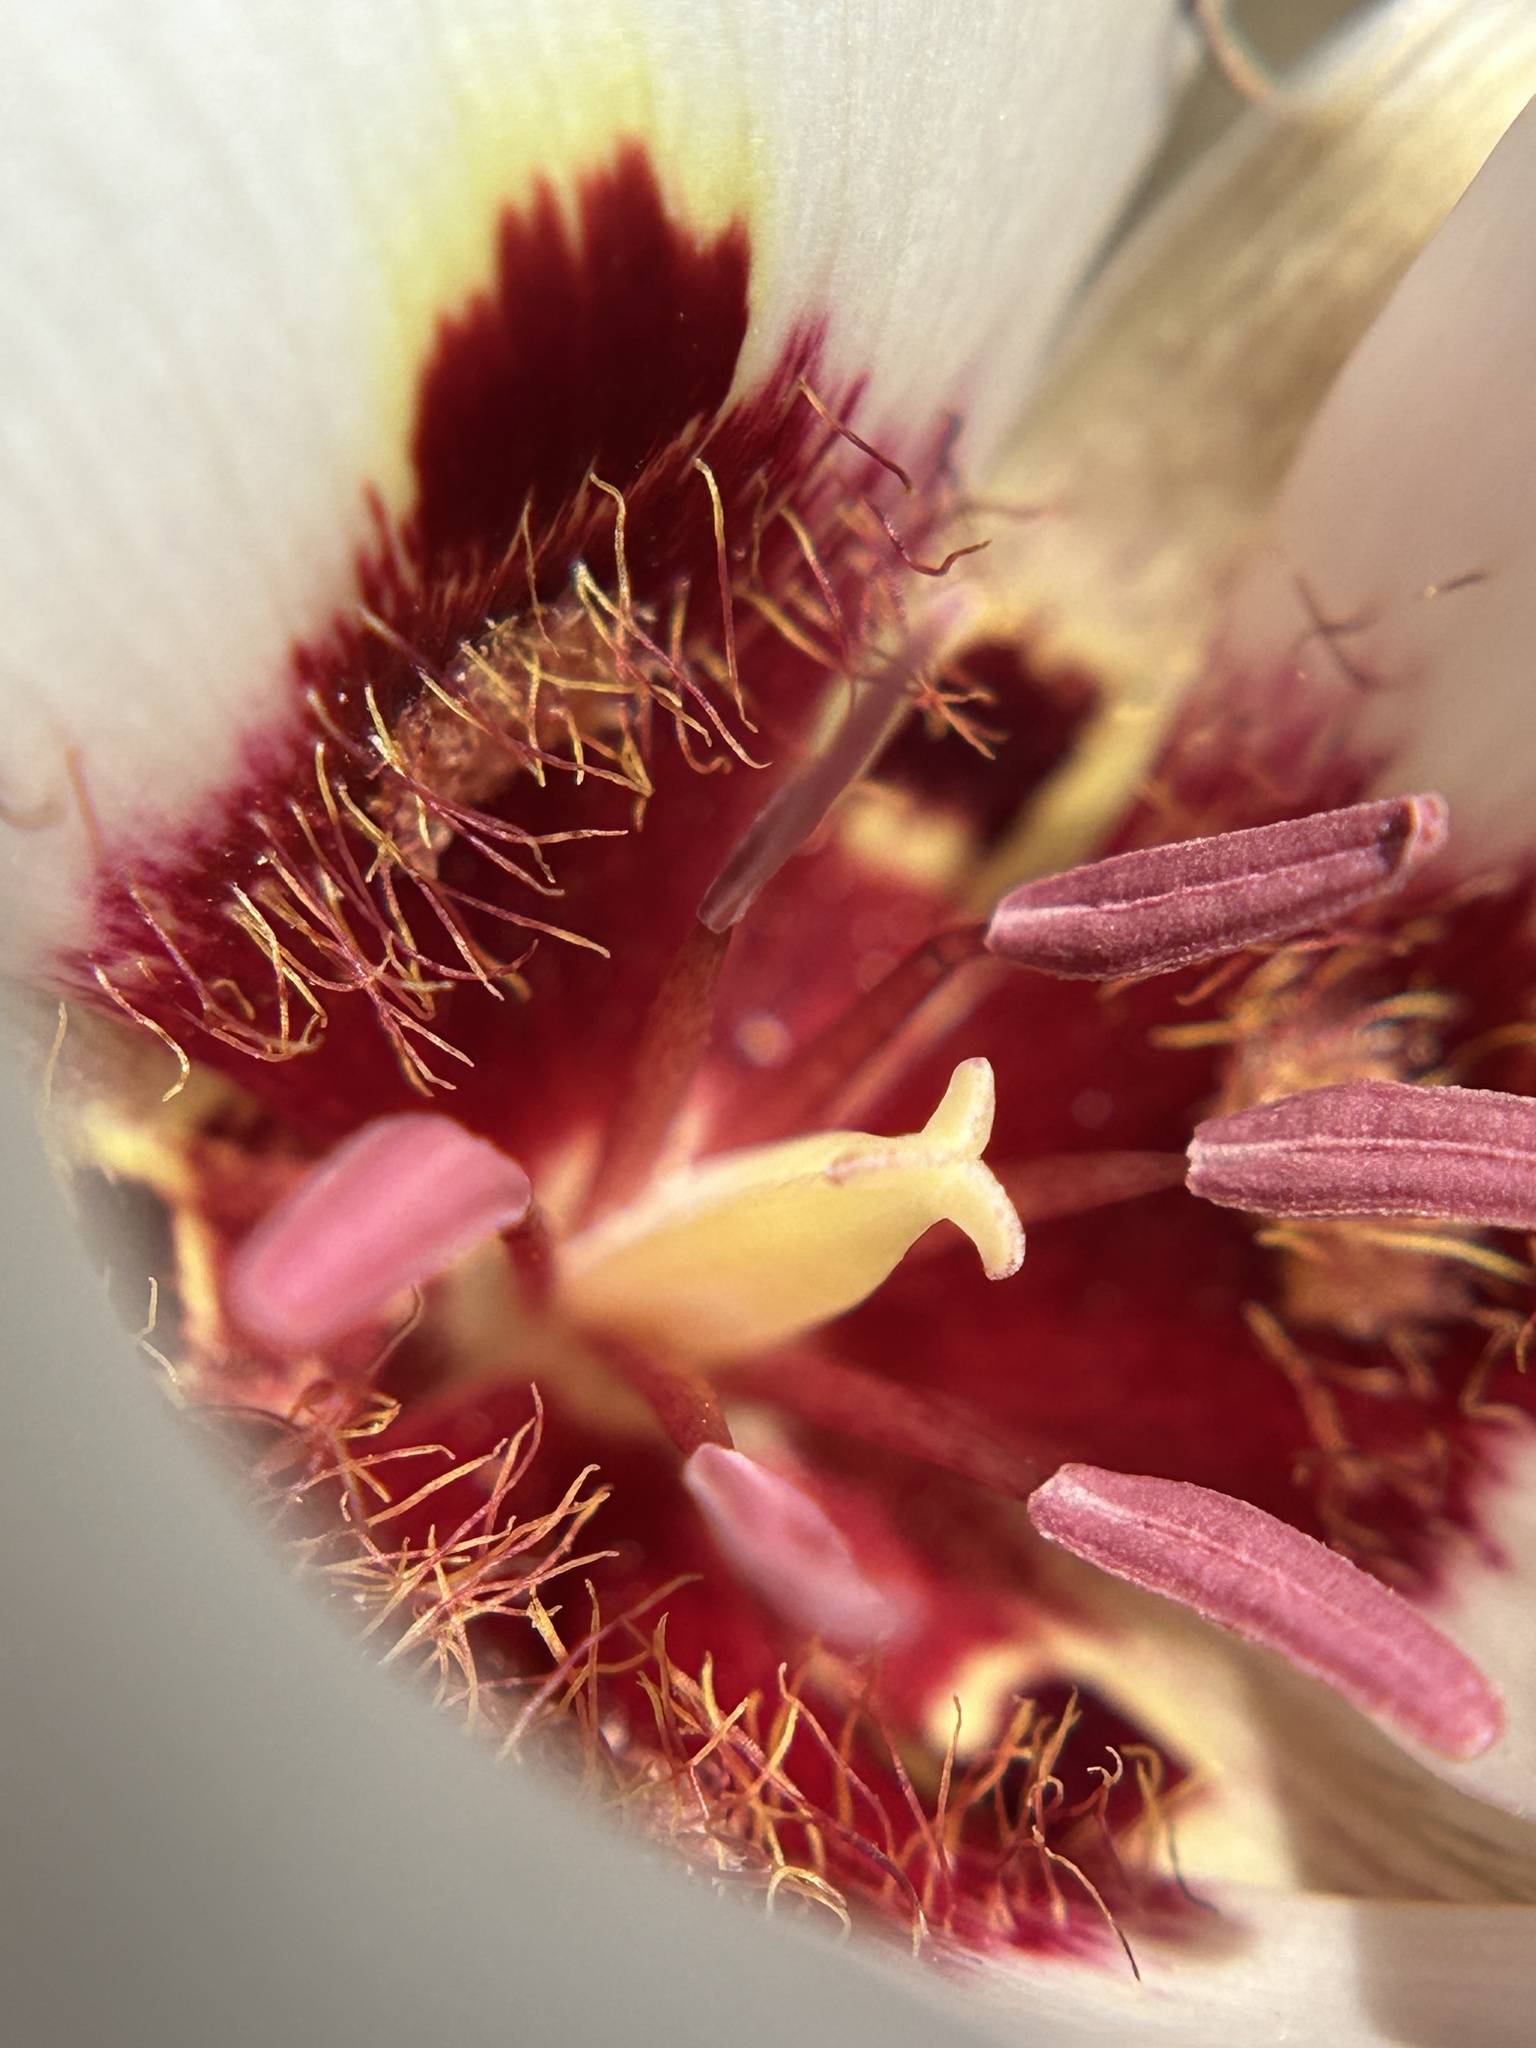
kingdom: Plantae
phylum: Tracheophyta
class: Liliopsida
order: Liliales
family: Liliaceae
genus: Calochortus
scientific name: Calochortus simulans
